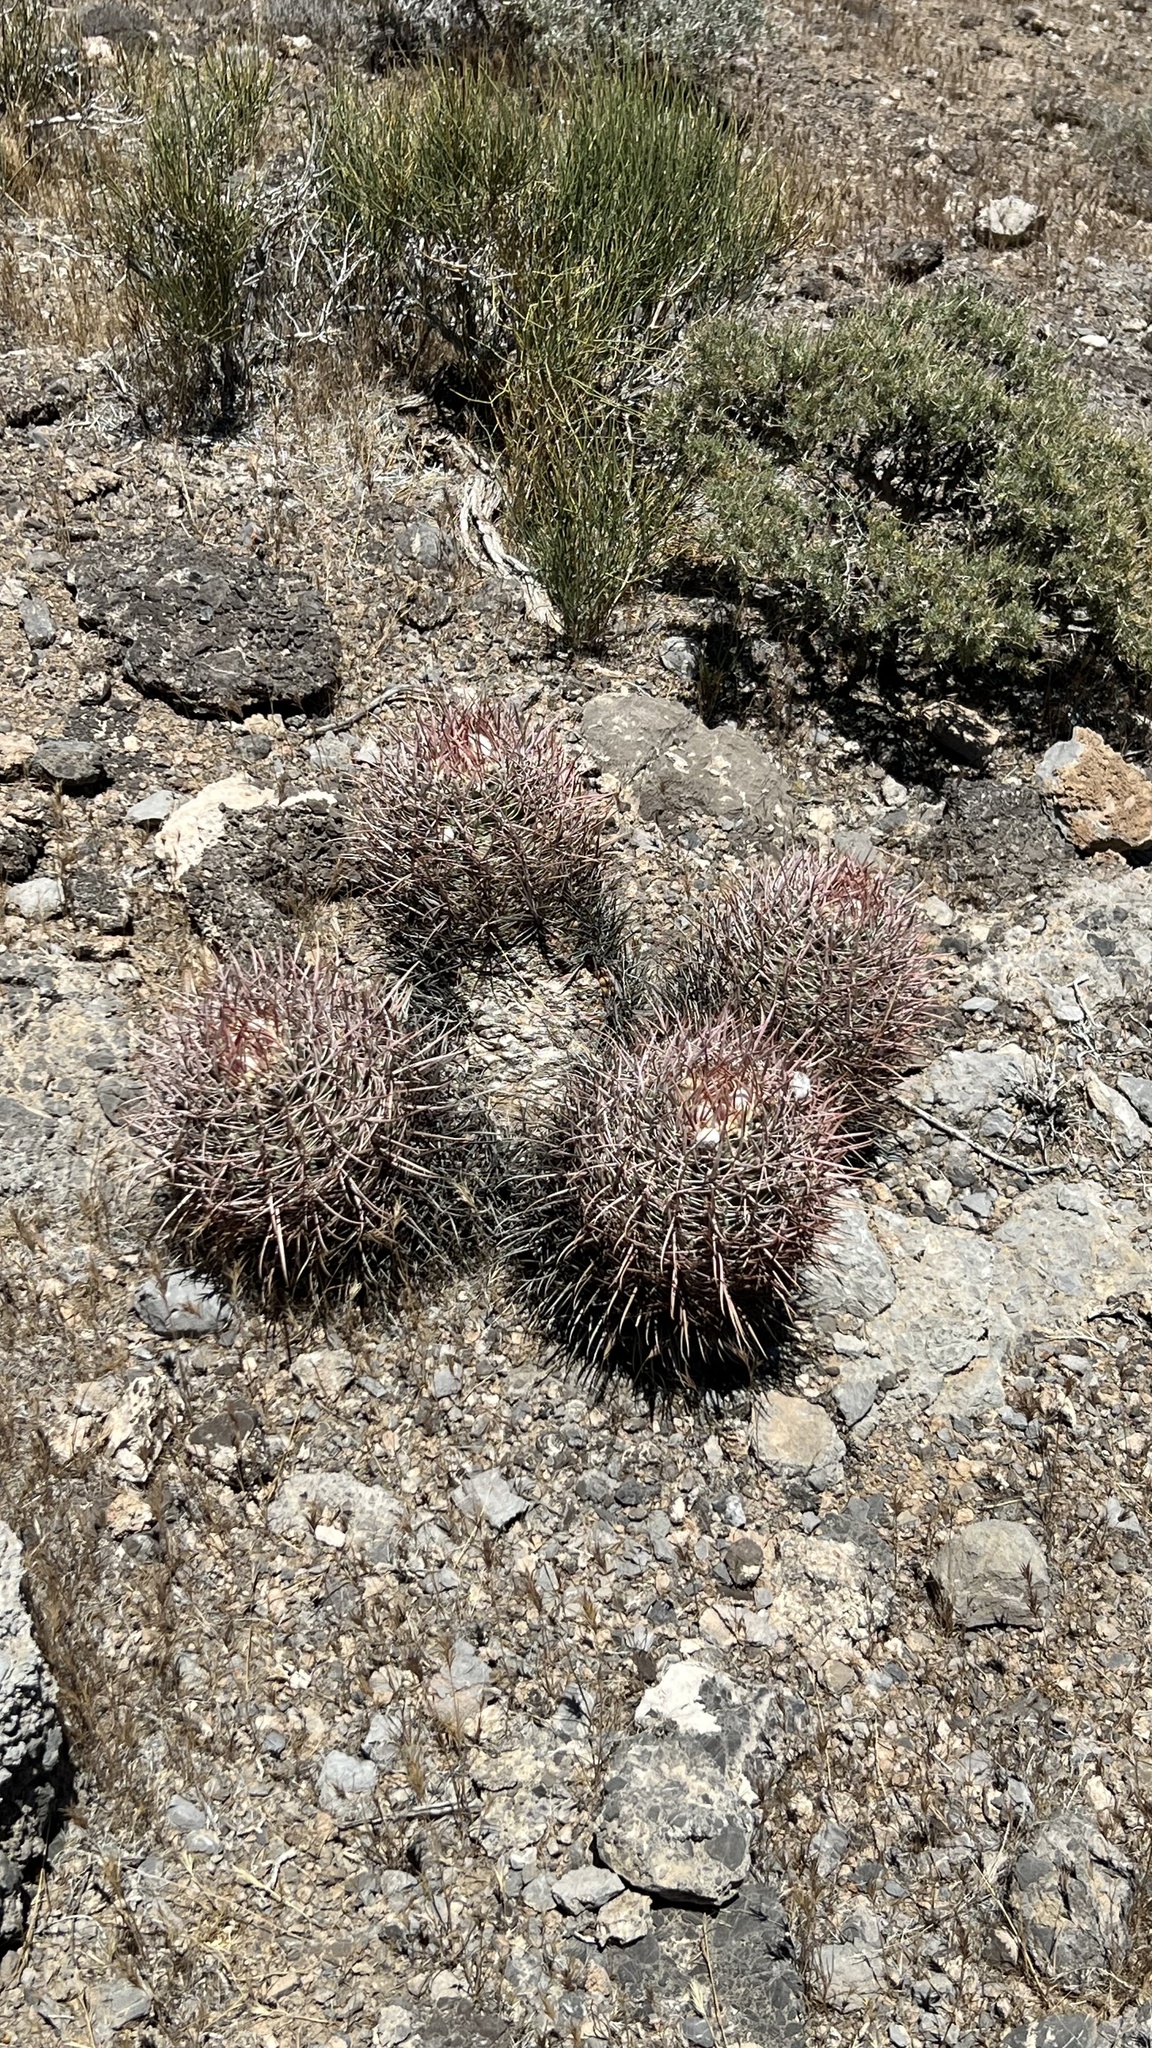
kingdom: Plantae
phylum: Tracheophyta
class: Magnoliopsida
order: Caryophyllales
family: Cactaceae
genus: Echinocactus
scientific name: Echinocactus polycephalus
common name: Cottontop cactus
